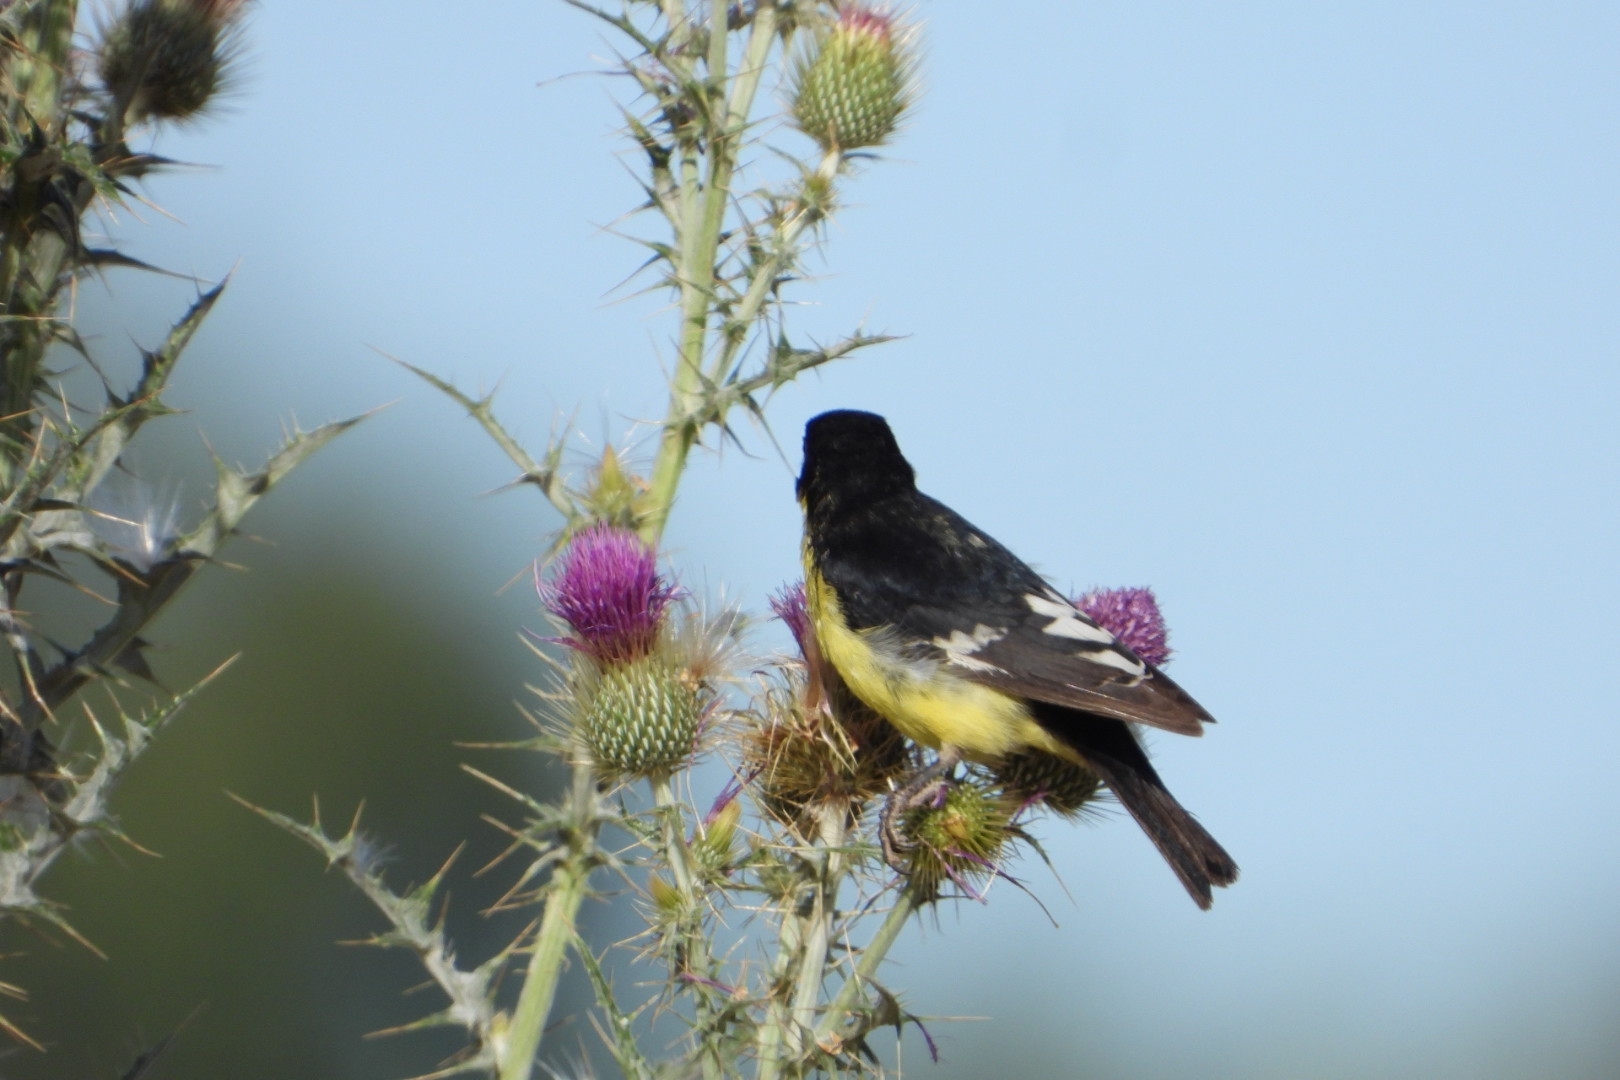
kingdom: Animalia
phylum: Chordata
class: Aves
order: Passeriformes
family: Fringillidae
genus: Spinus
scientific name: Spinus psaltria
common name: Lesser goldfinch
